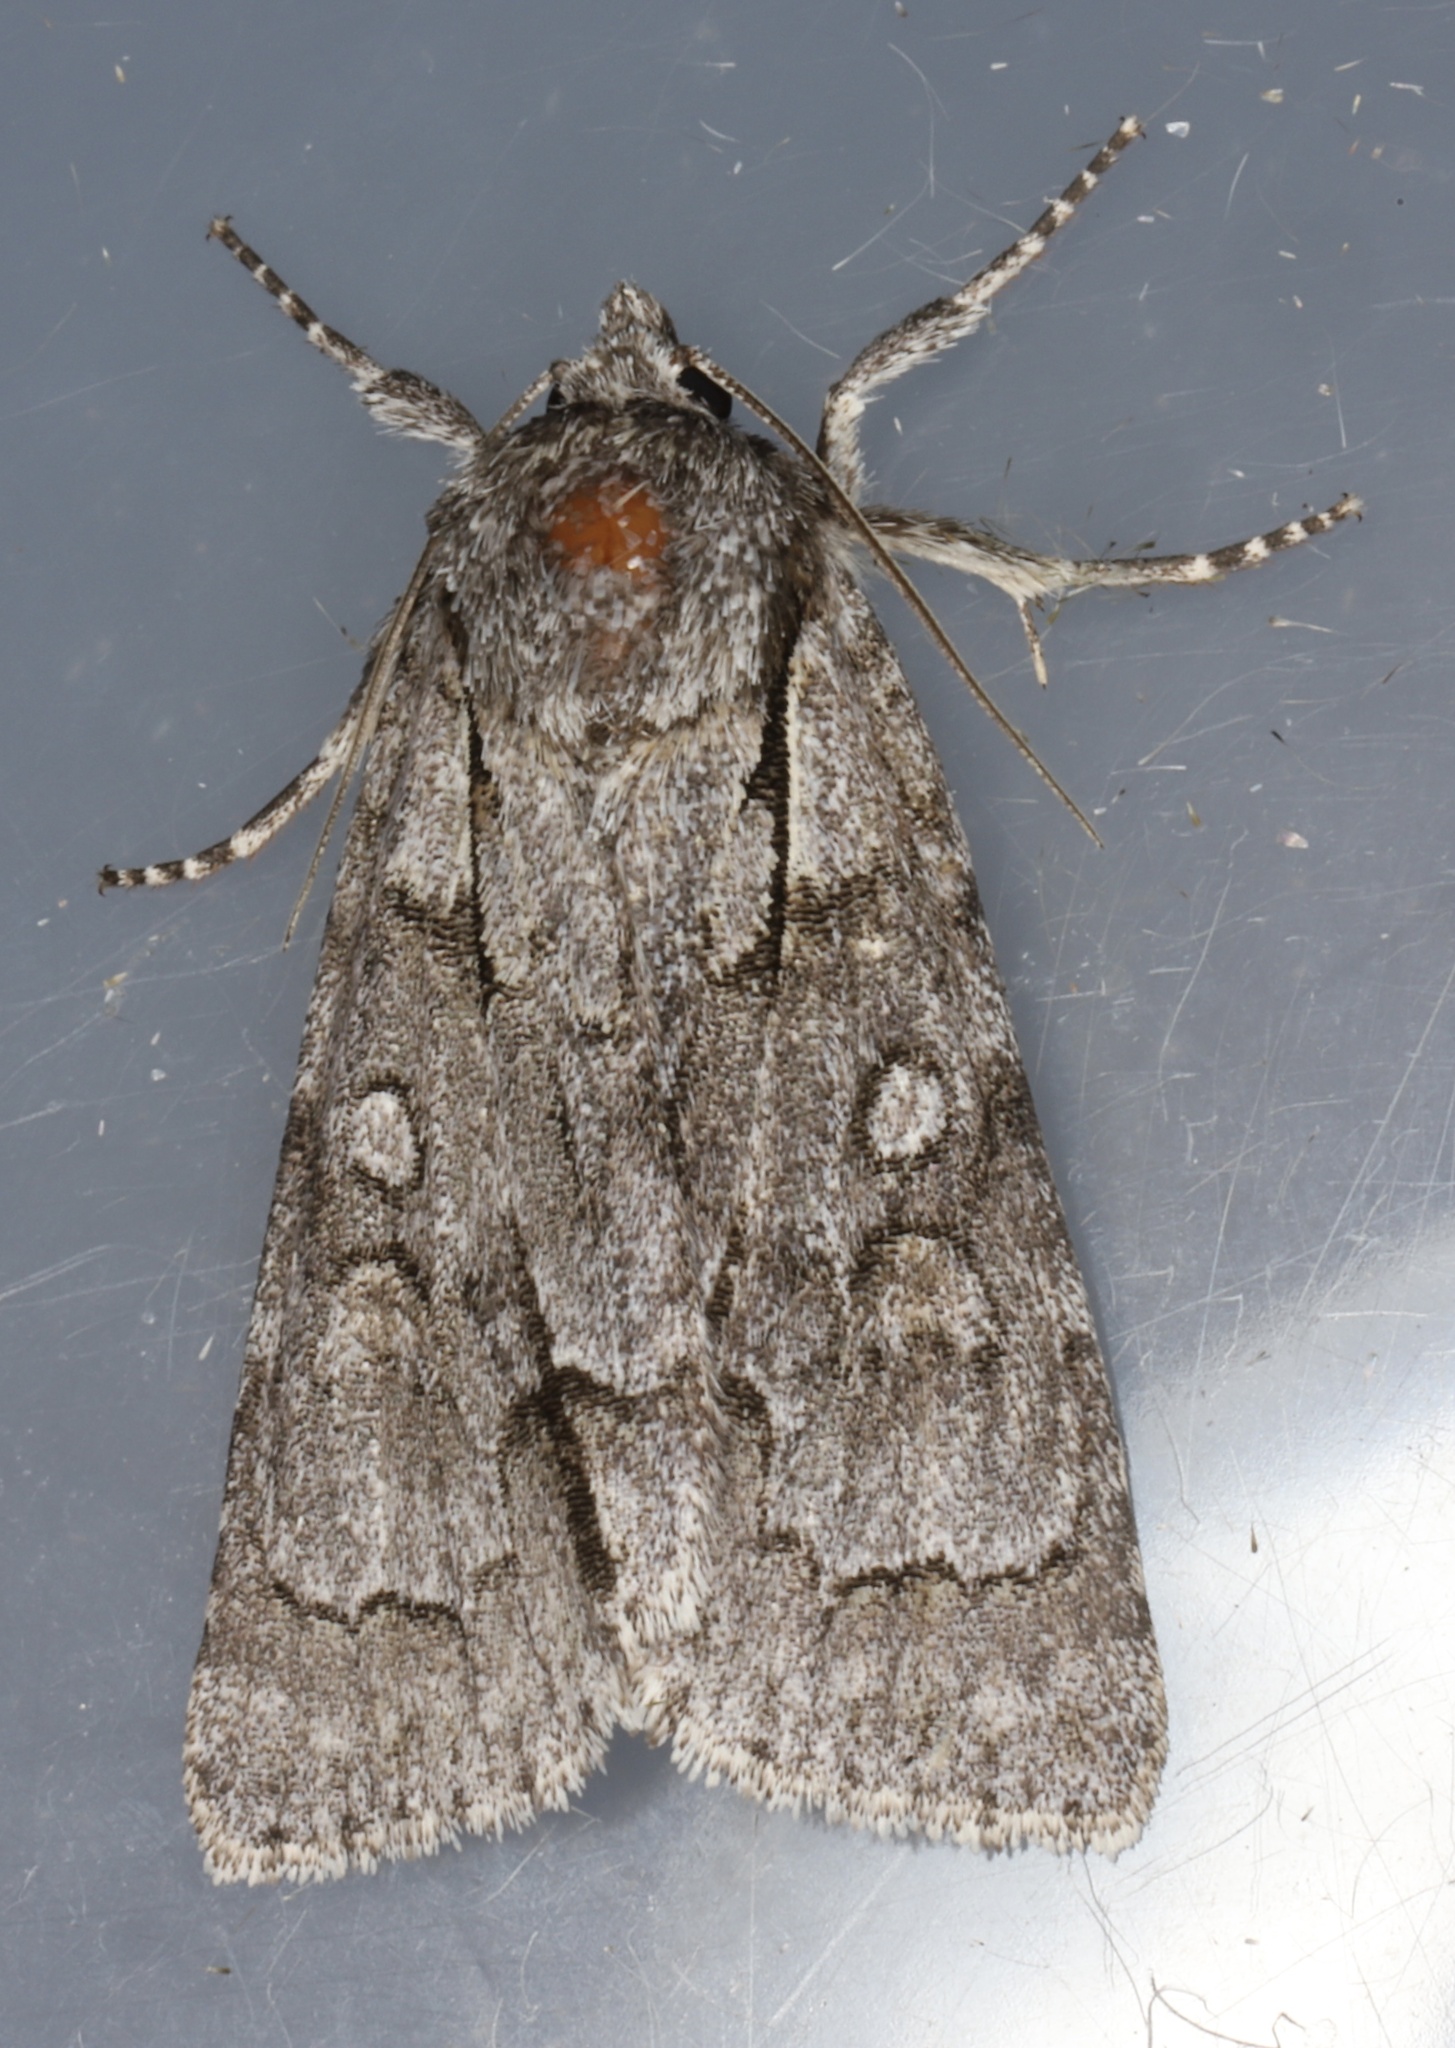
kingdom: Animalia
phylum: Arthropoda
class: Insecta
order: Lepidoptera
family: Noctuidae
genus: Acronicta
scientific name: Acronicta grisea
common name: Gray dagger
